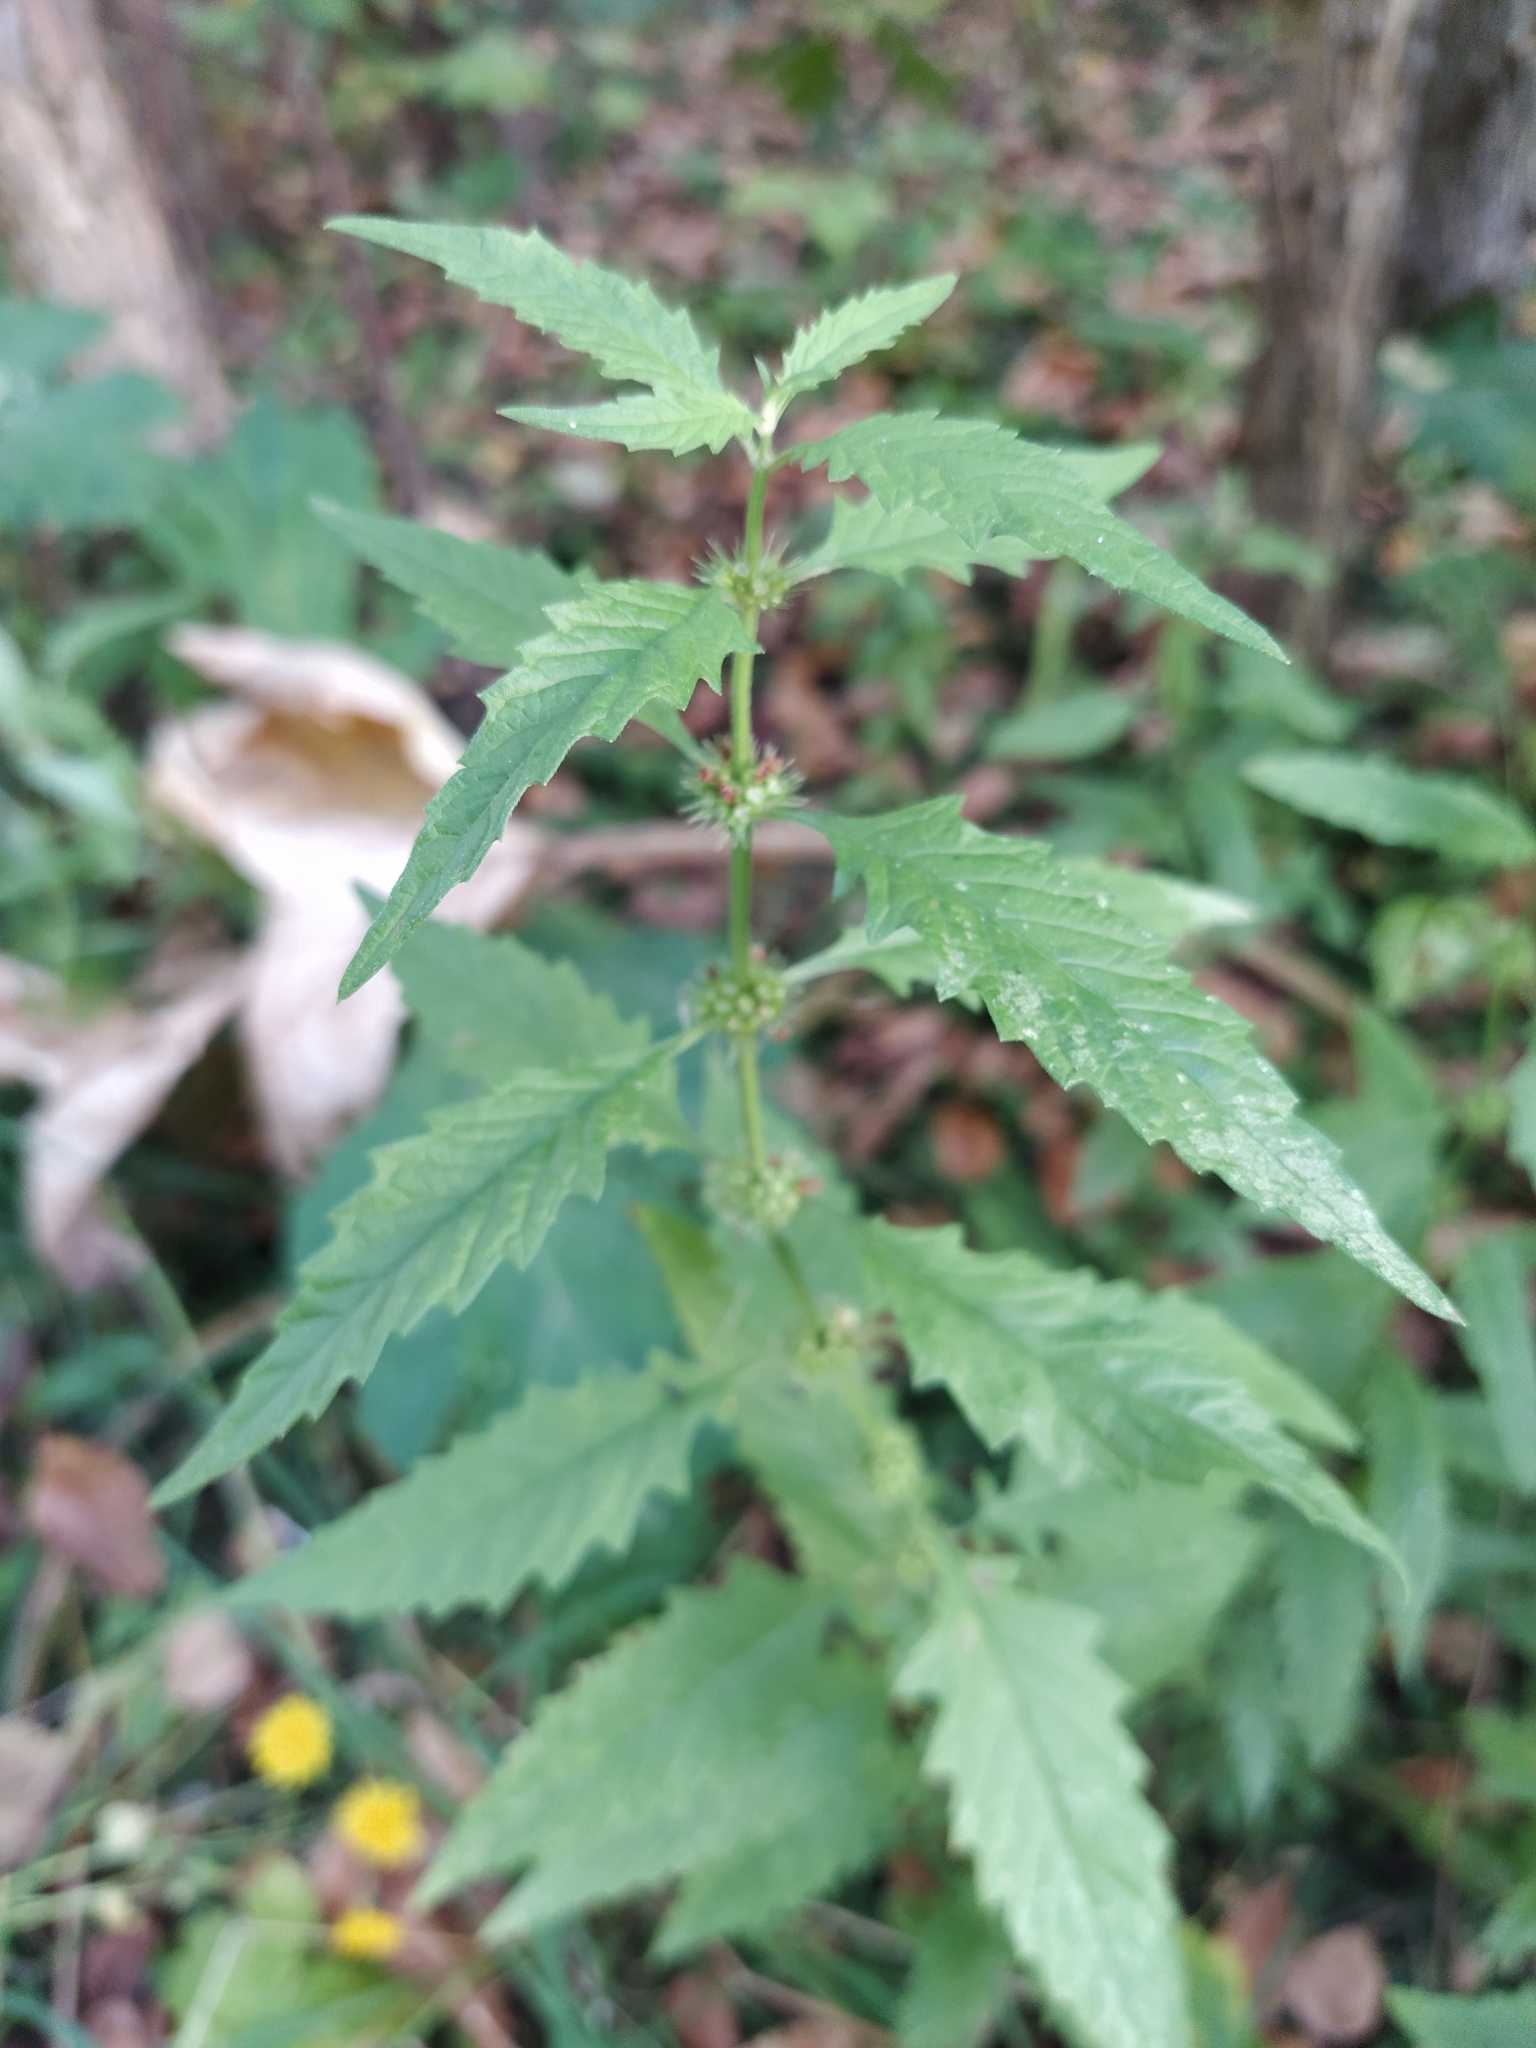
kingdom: Plantae
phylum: Tracheophyta
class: Magnoliopsida
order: Lamiales
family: Lamiaceae
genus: Lycopus
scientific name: Lycopus europaeus
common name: European bugleweed
